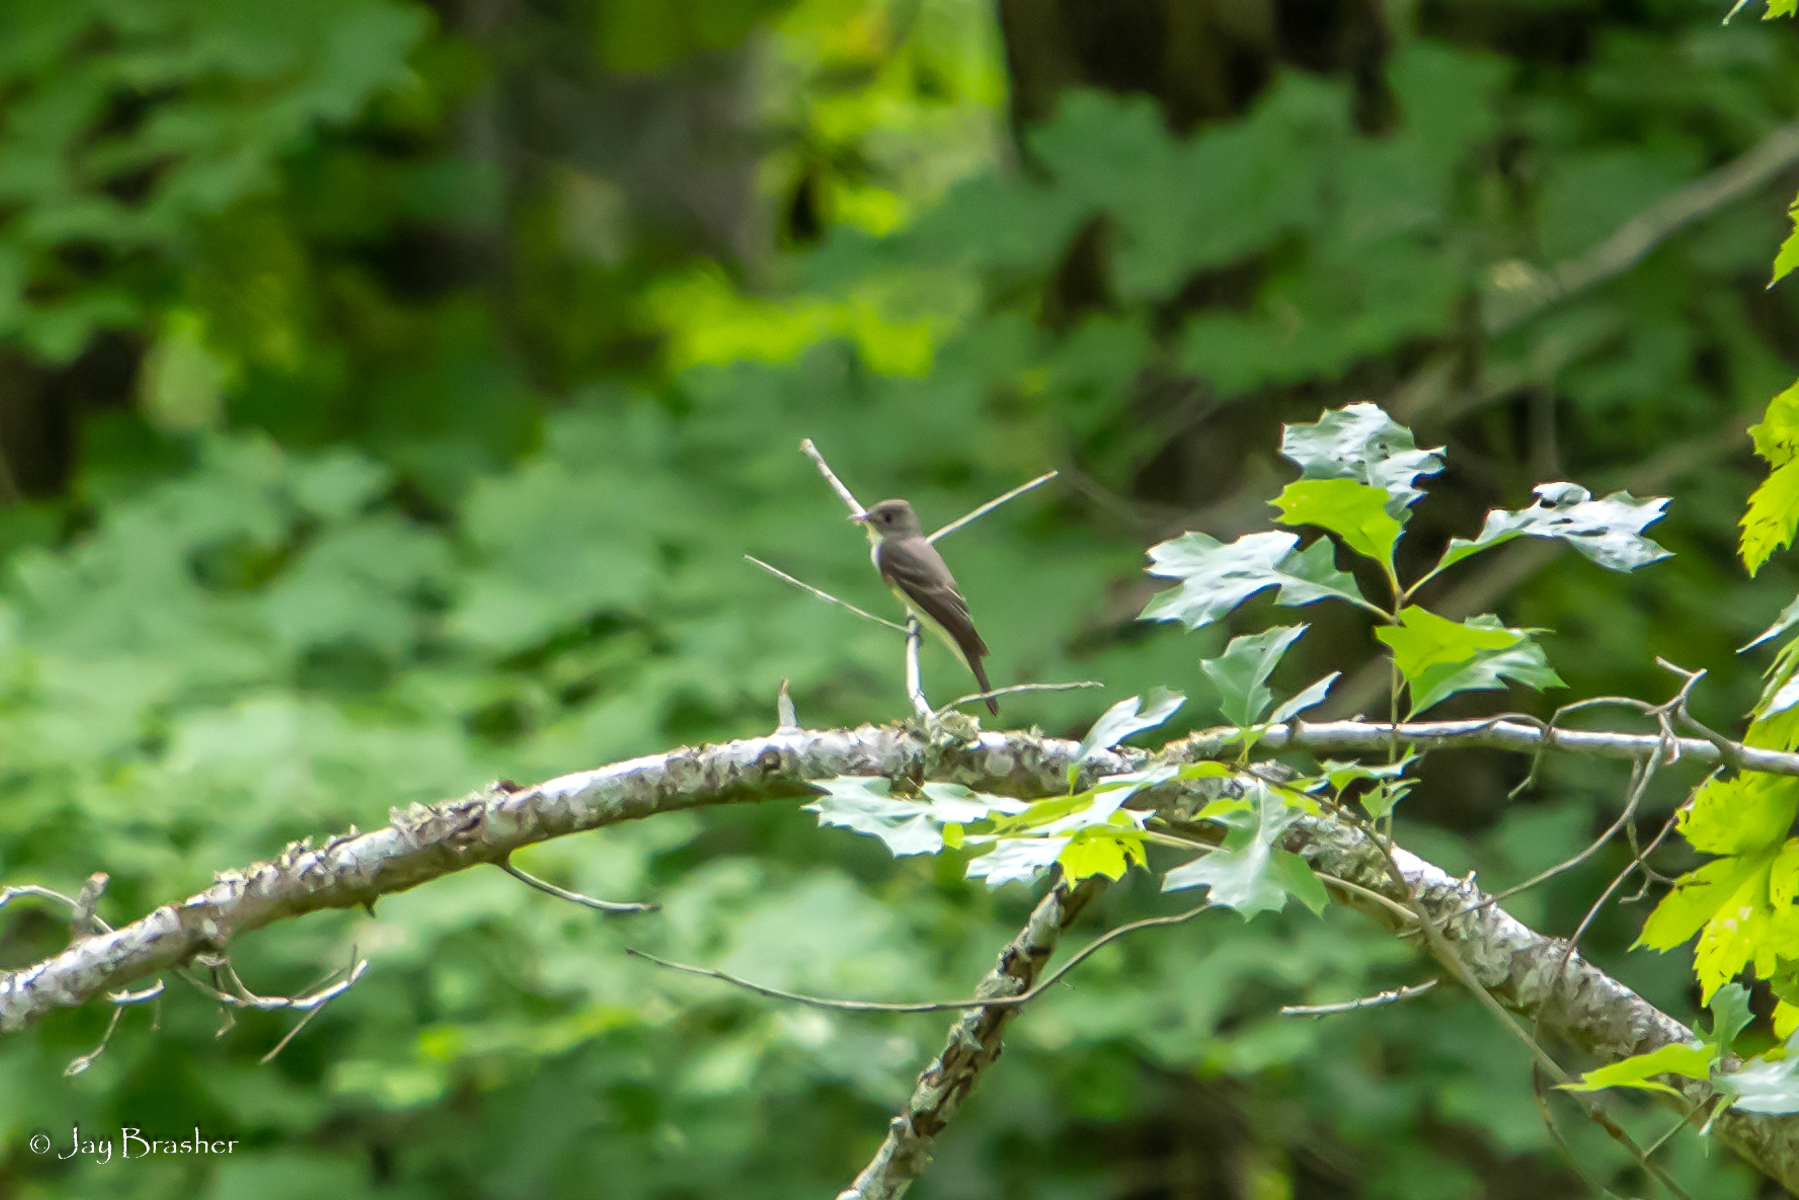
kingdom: Animalia
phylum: Chordata
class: Aves
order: Passeriformes
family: Tyrannidae
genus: Contopus
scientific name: Contopus virens
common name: Eastern wood-pewee
